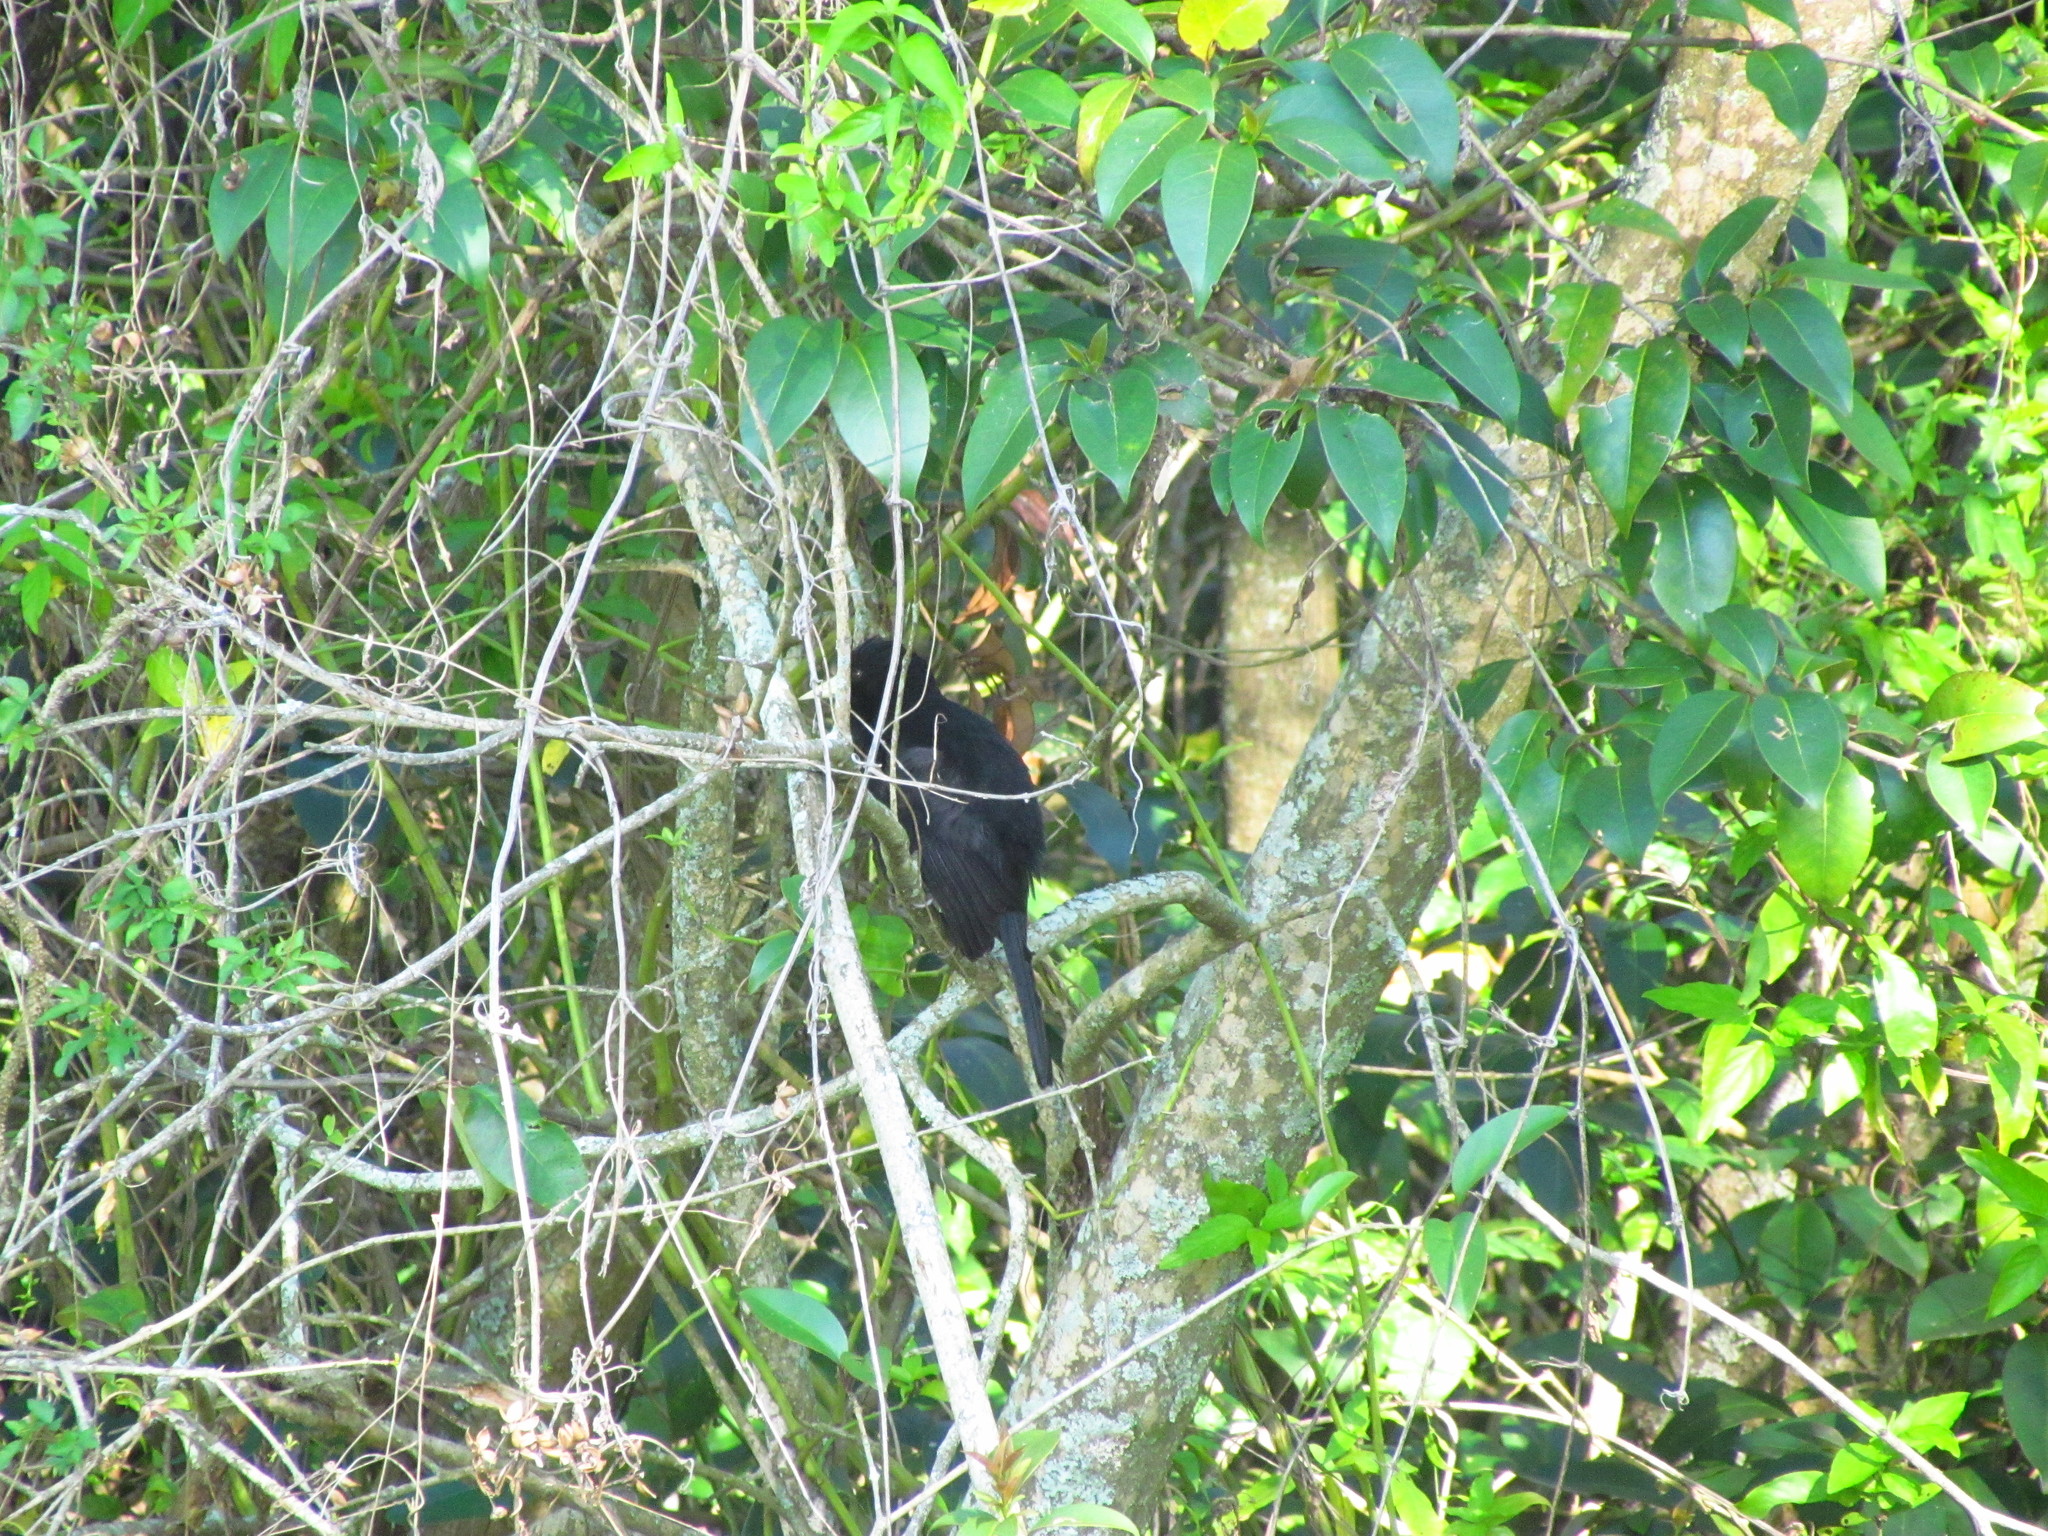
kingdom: Animalia
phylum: Chordata
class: Aves
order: Passeriformes
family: Icteridae
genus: Cacicus
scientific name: Cacicus solitarius
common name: Solitary cacique
